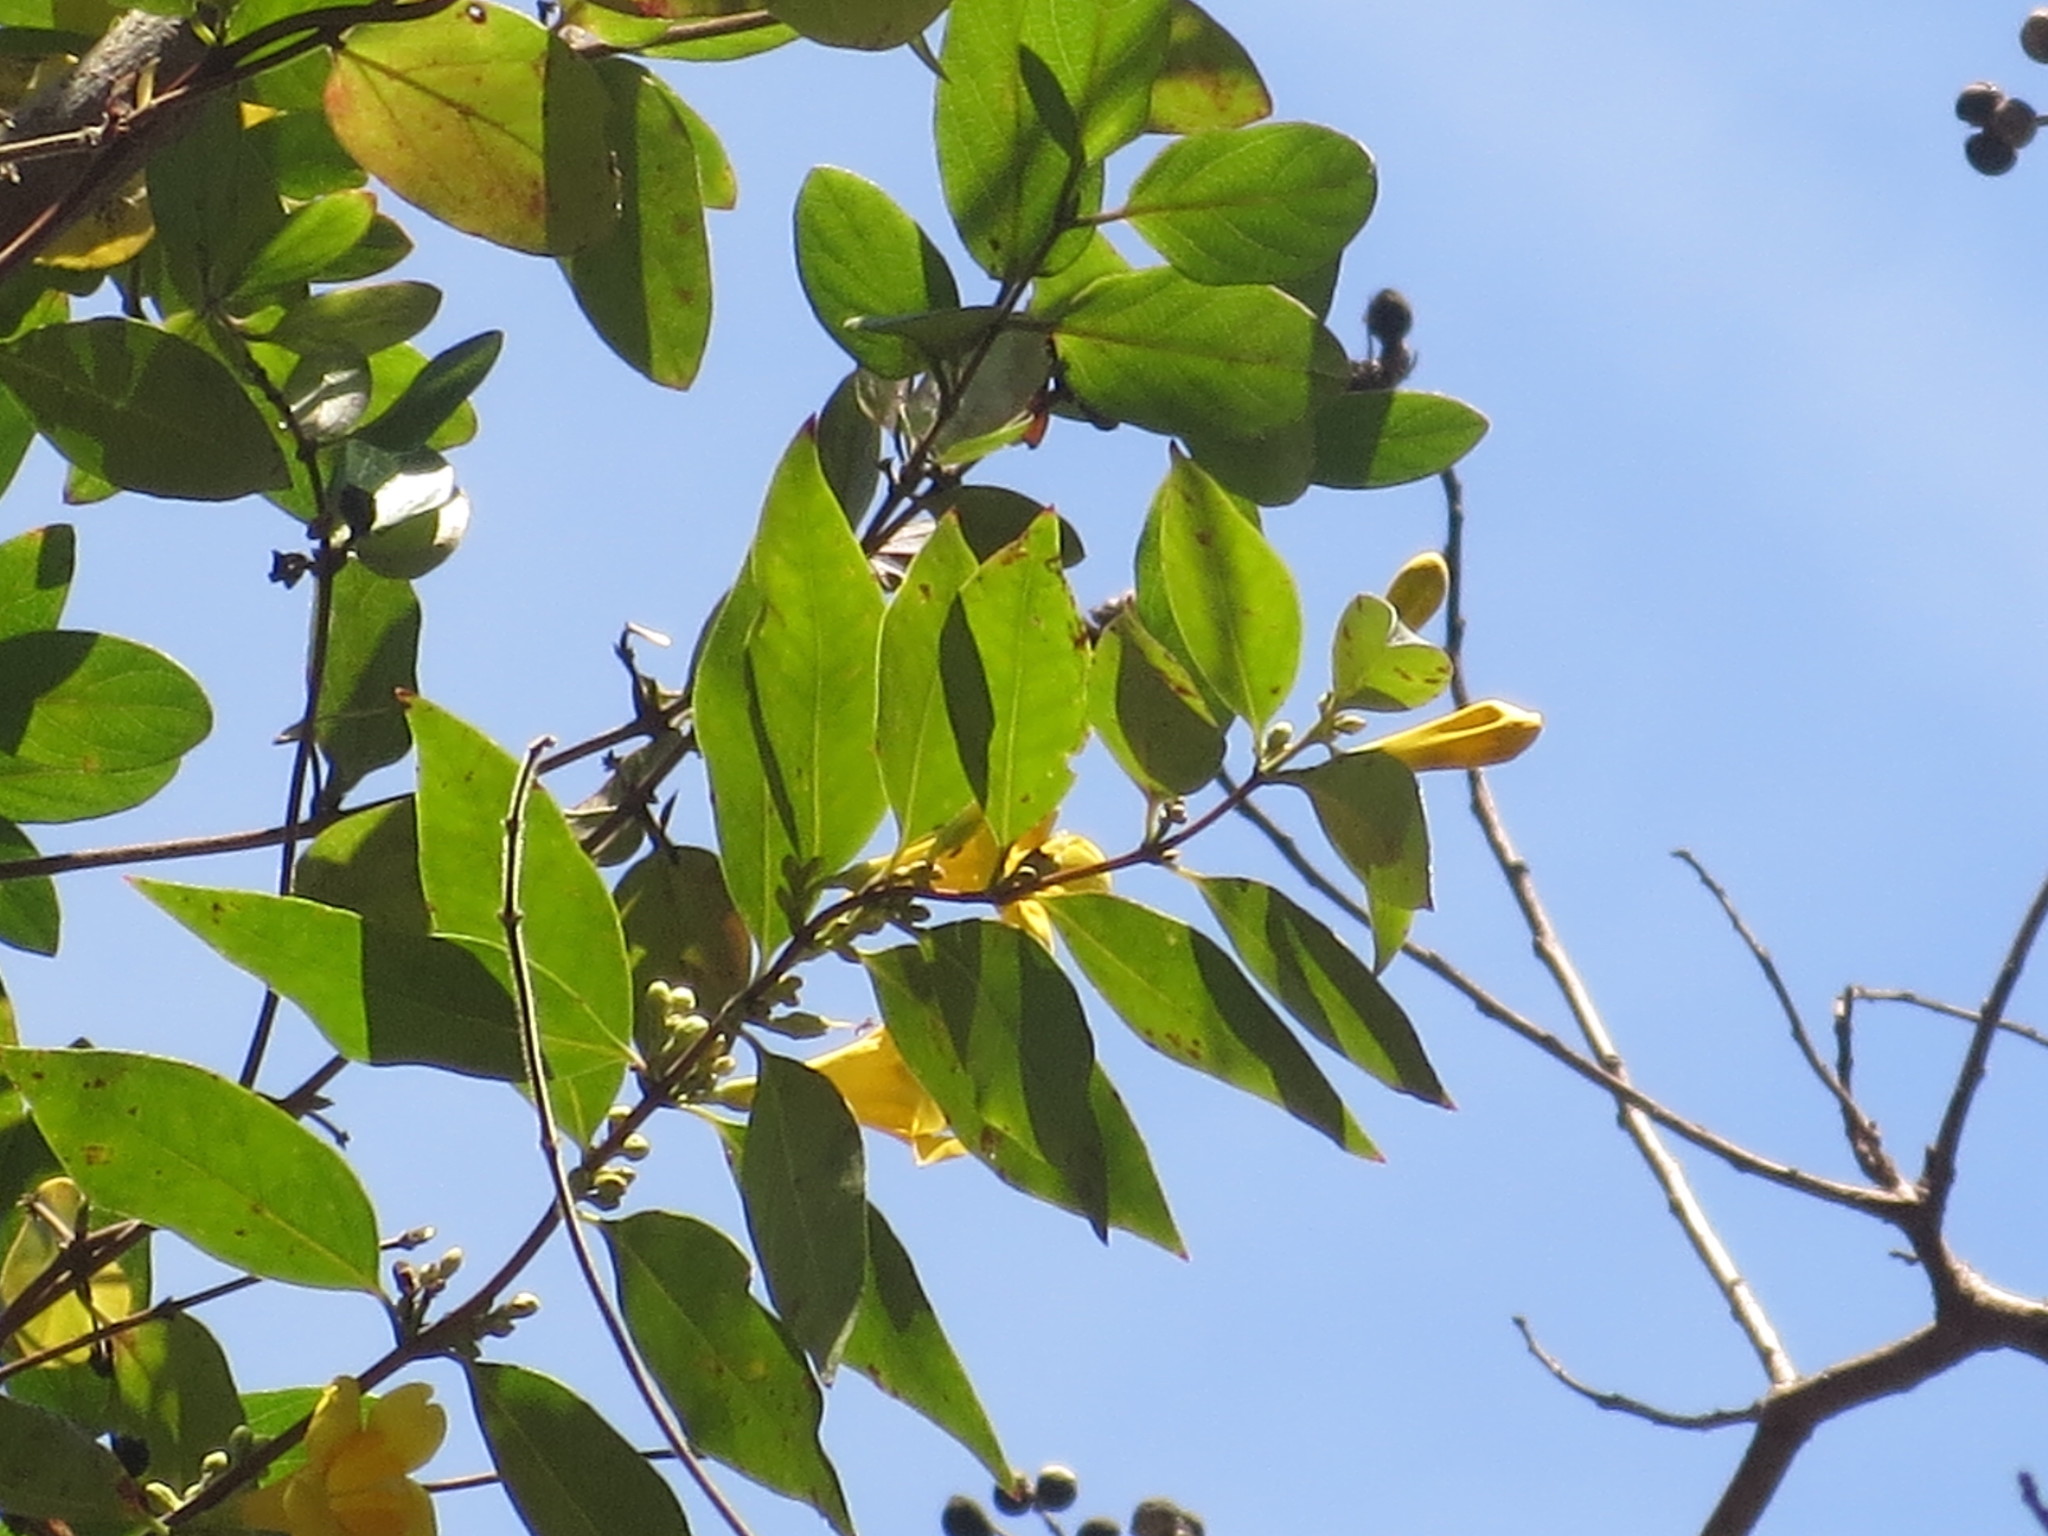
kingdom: Plantae
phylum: Tracheophyta
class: Magnoliopsida
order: Gentianales
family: Gelsemiaceae
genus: Gelsemium
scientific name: Gelsemium sempervirens
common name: Carolina-jasmine
